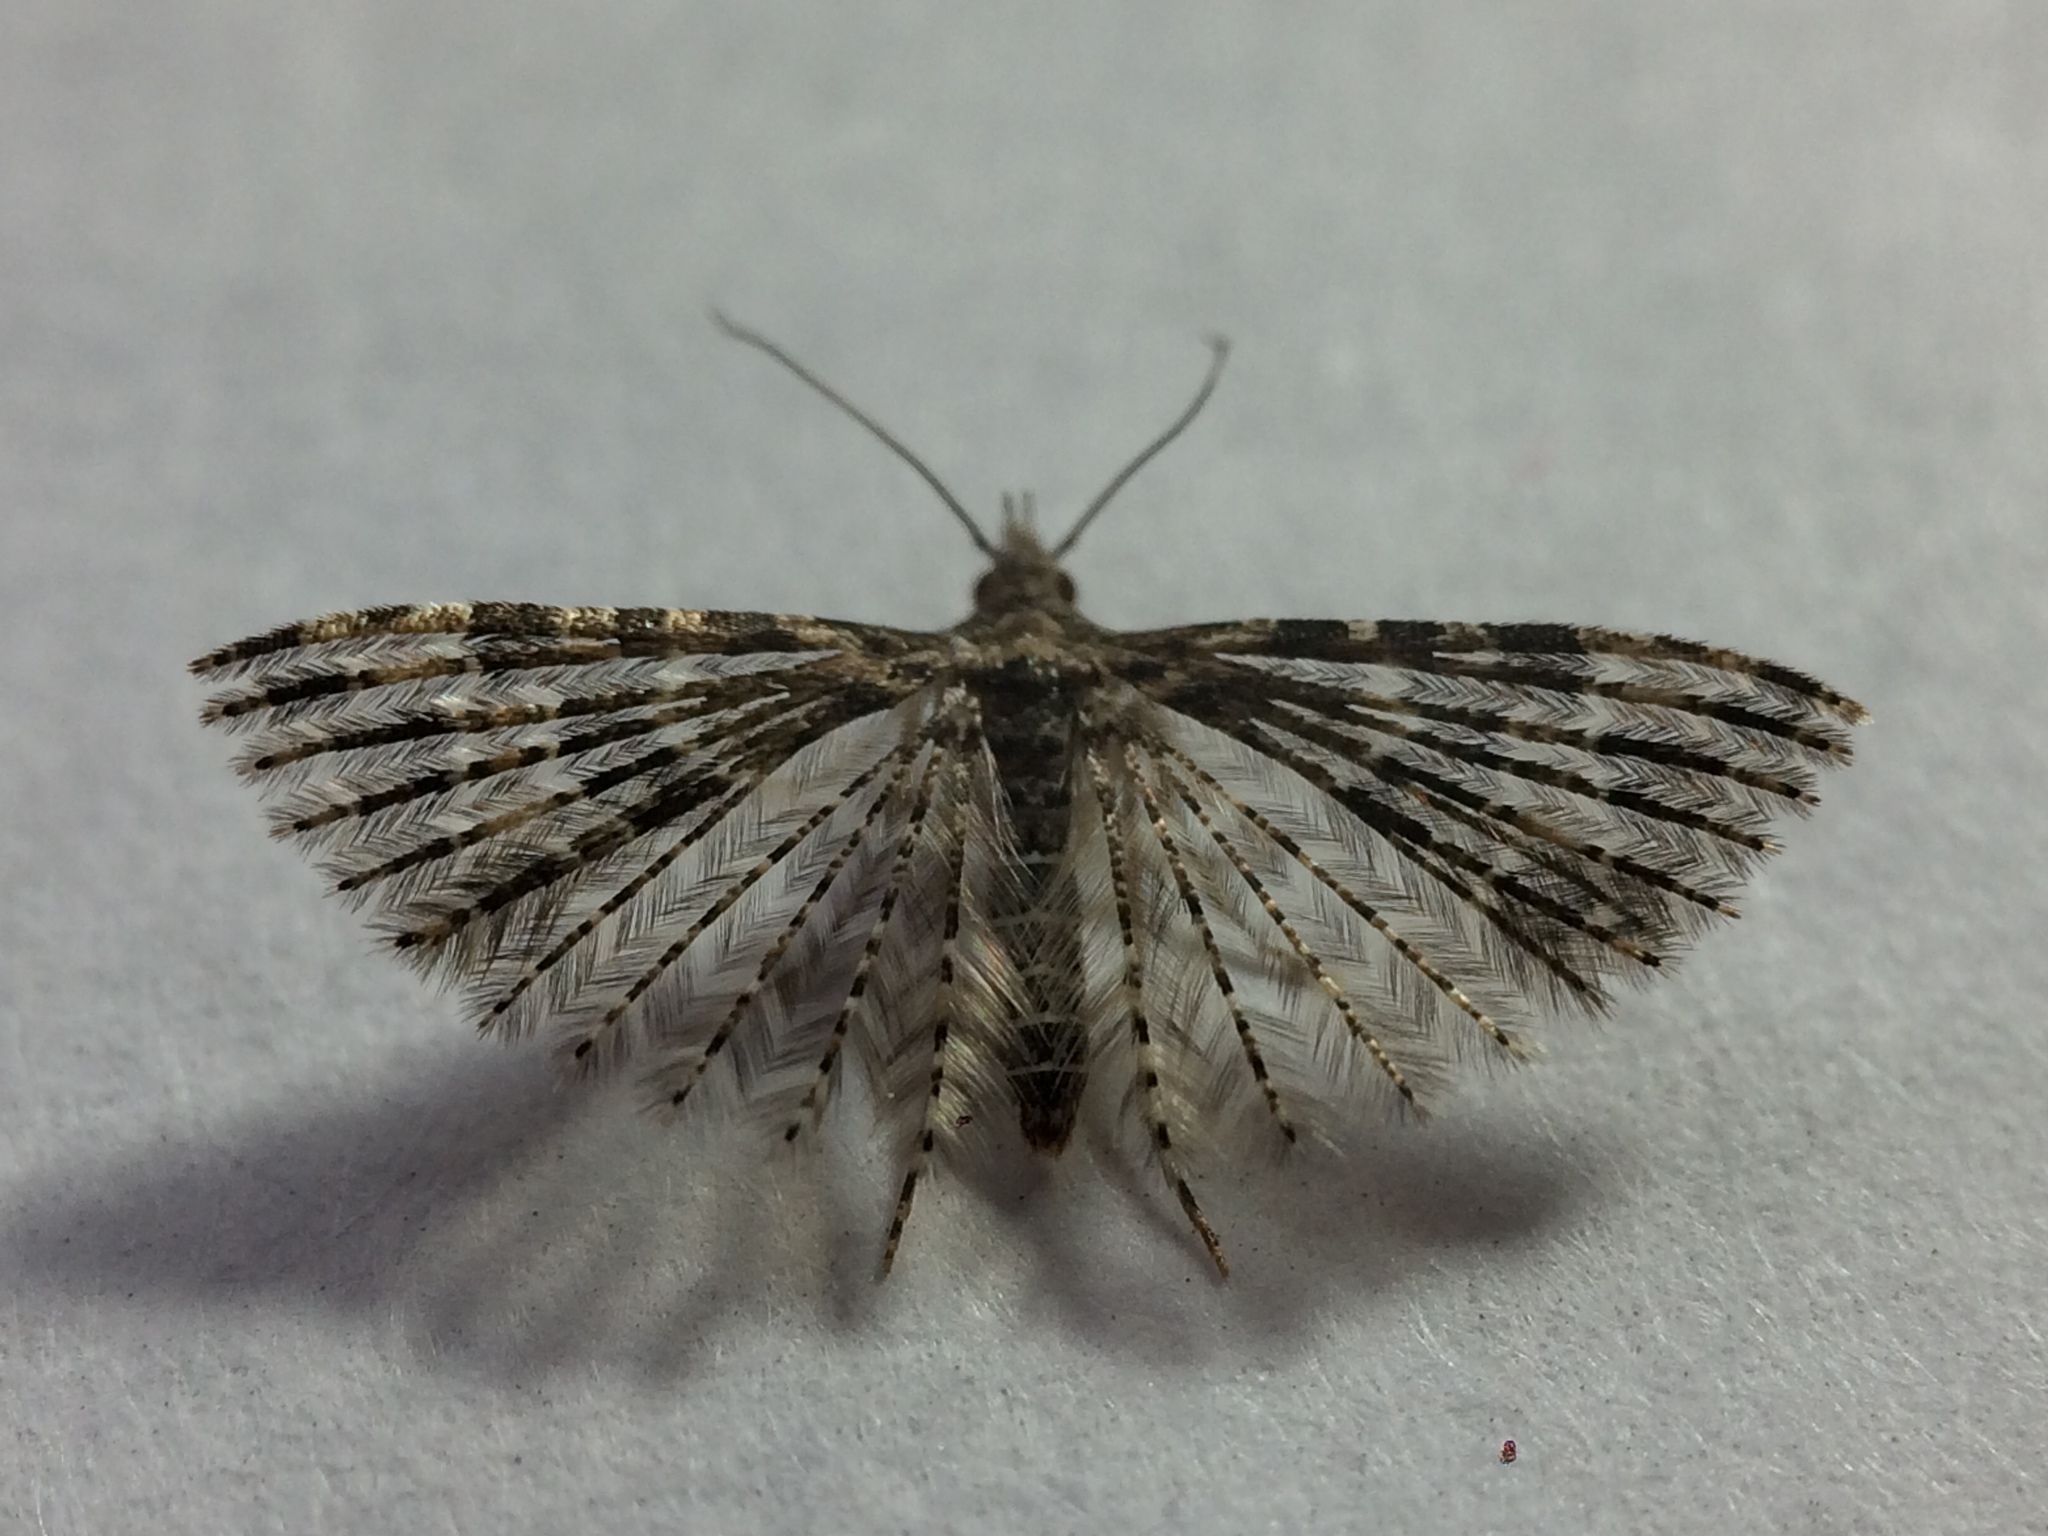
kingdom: Animalia
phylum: Arthropoda
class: Insecta
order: Lepidoptera
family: Alucitidae
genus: Alucita
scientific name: Alucita montana
